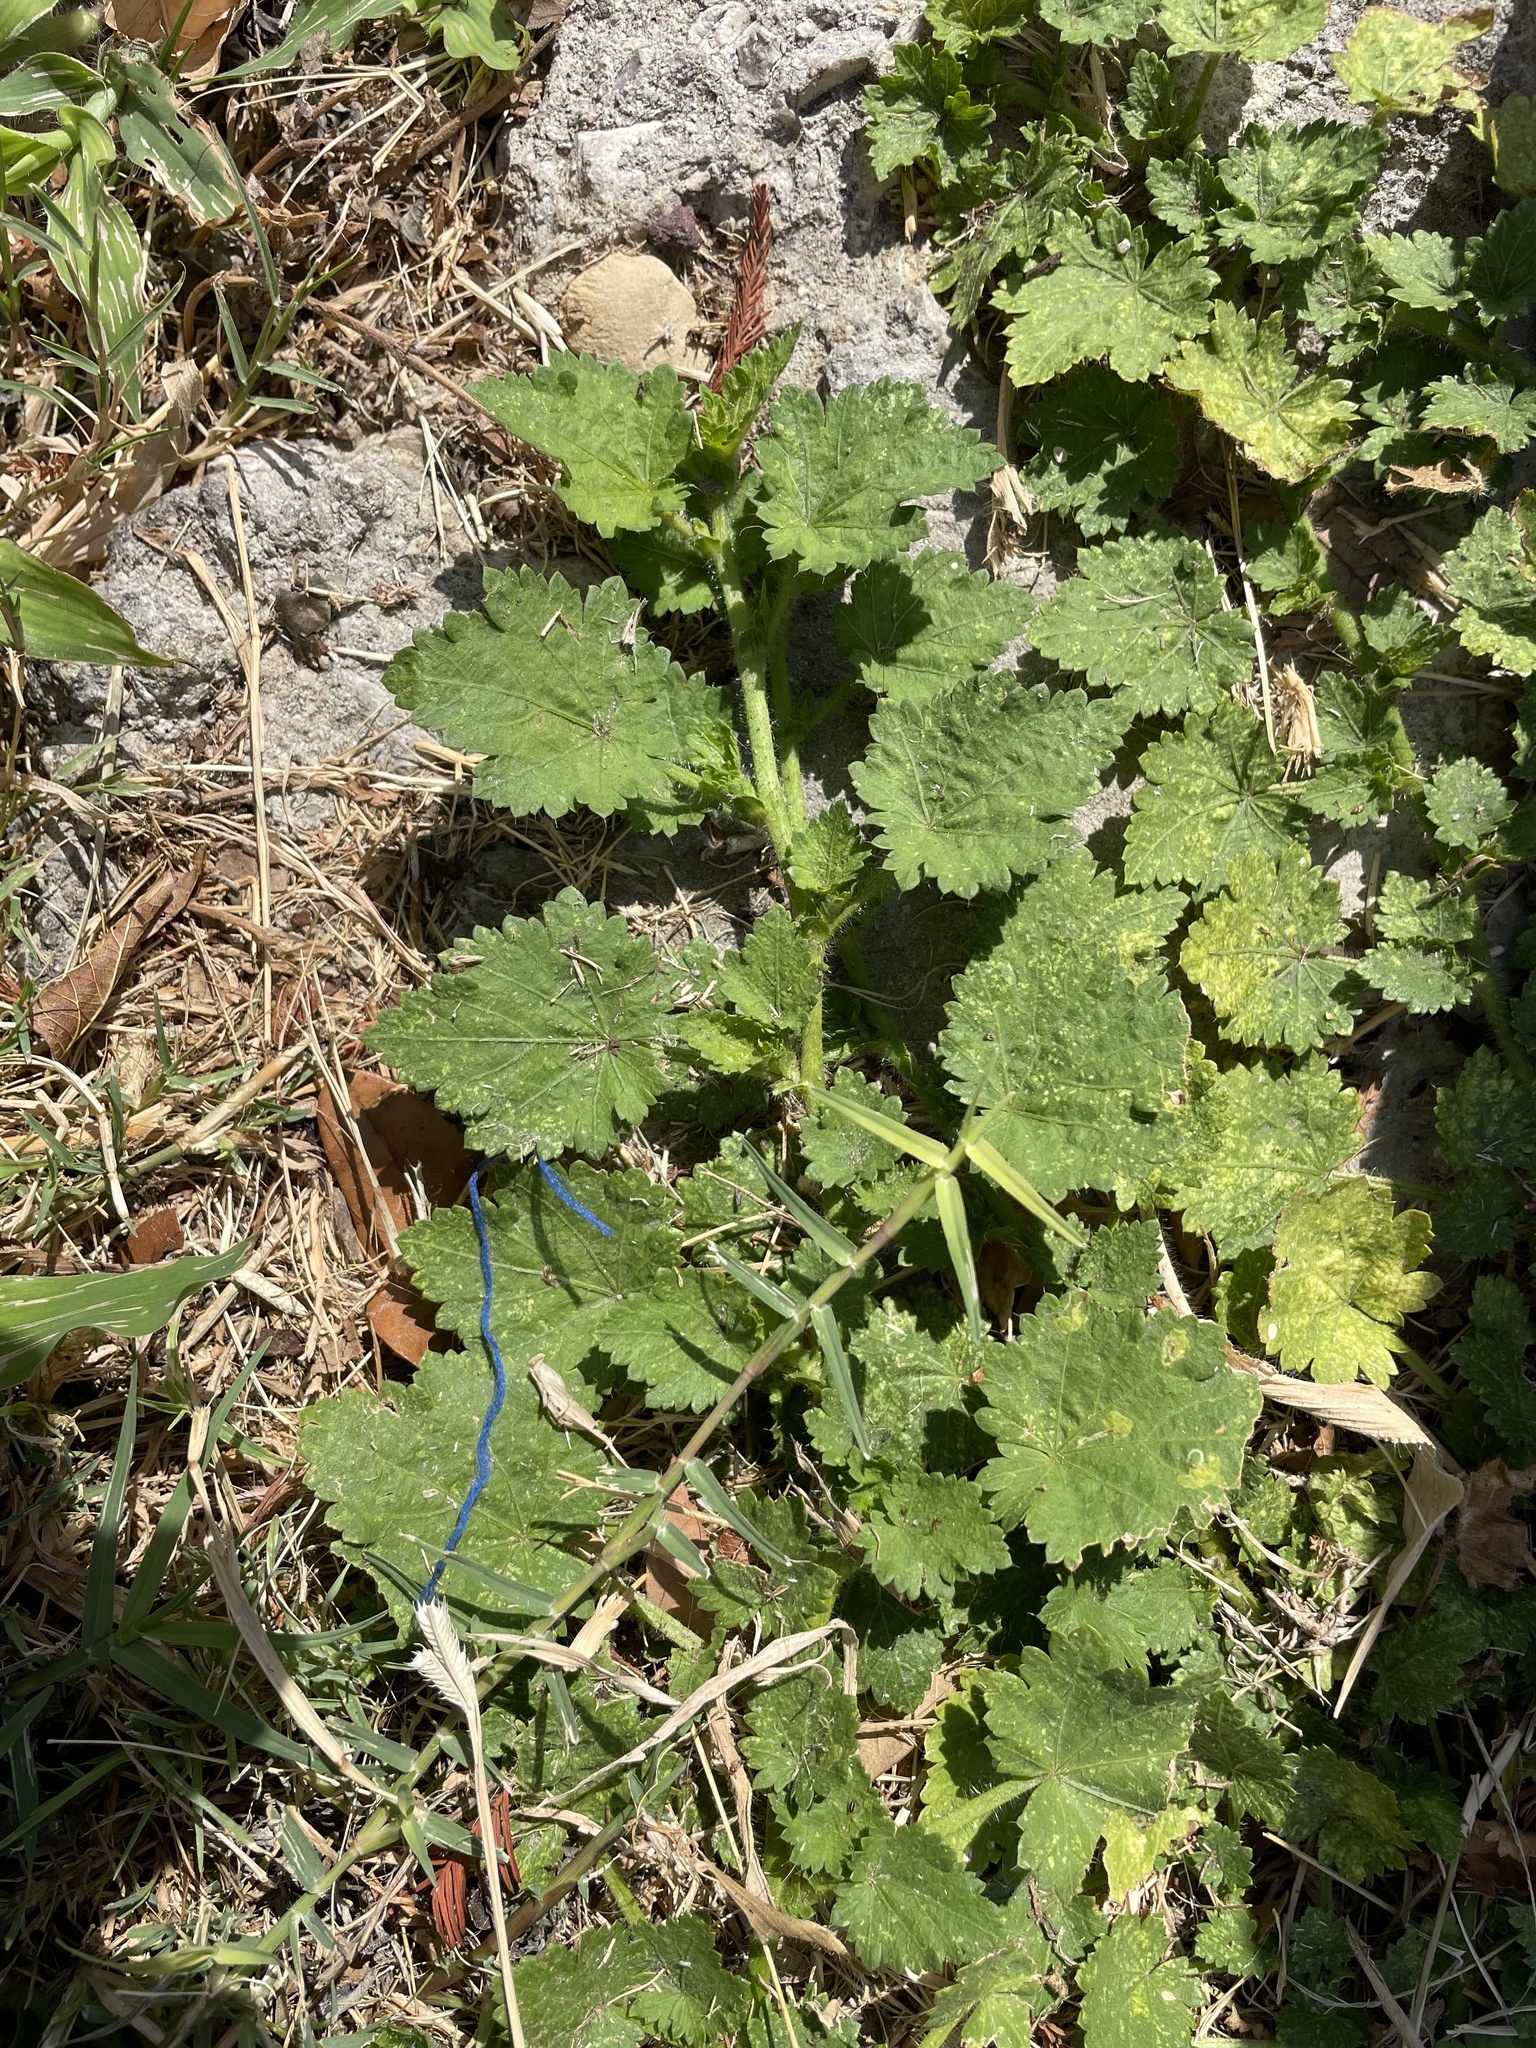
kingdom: Plantae
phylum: Tracheophyta
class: Magnoliopsida
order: Malvales
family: Malvaceae
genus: Modiola
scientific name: Modiola caroliniana
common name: Carolina bristlemallow
